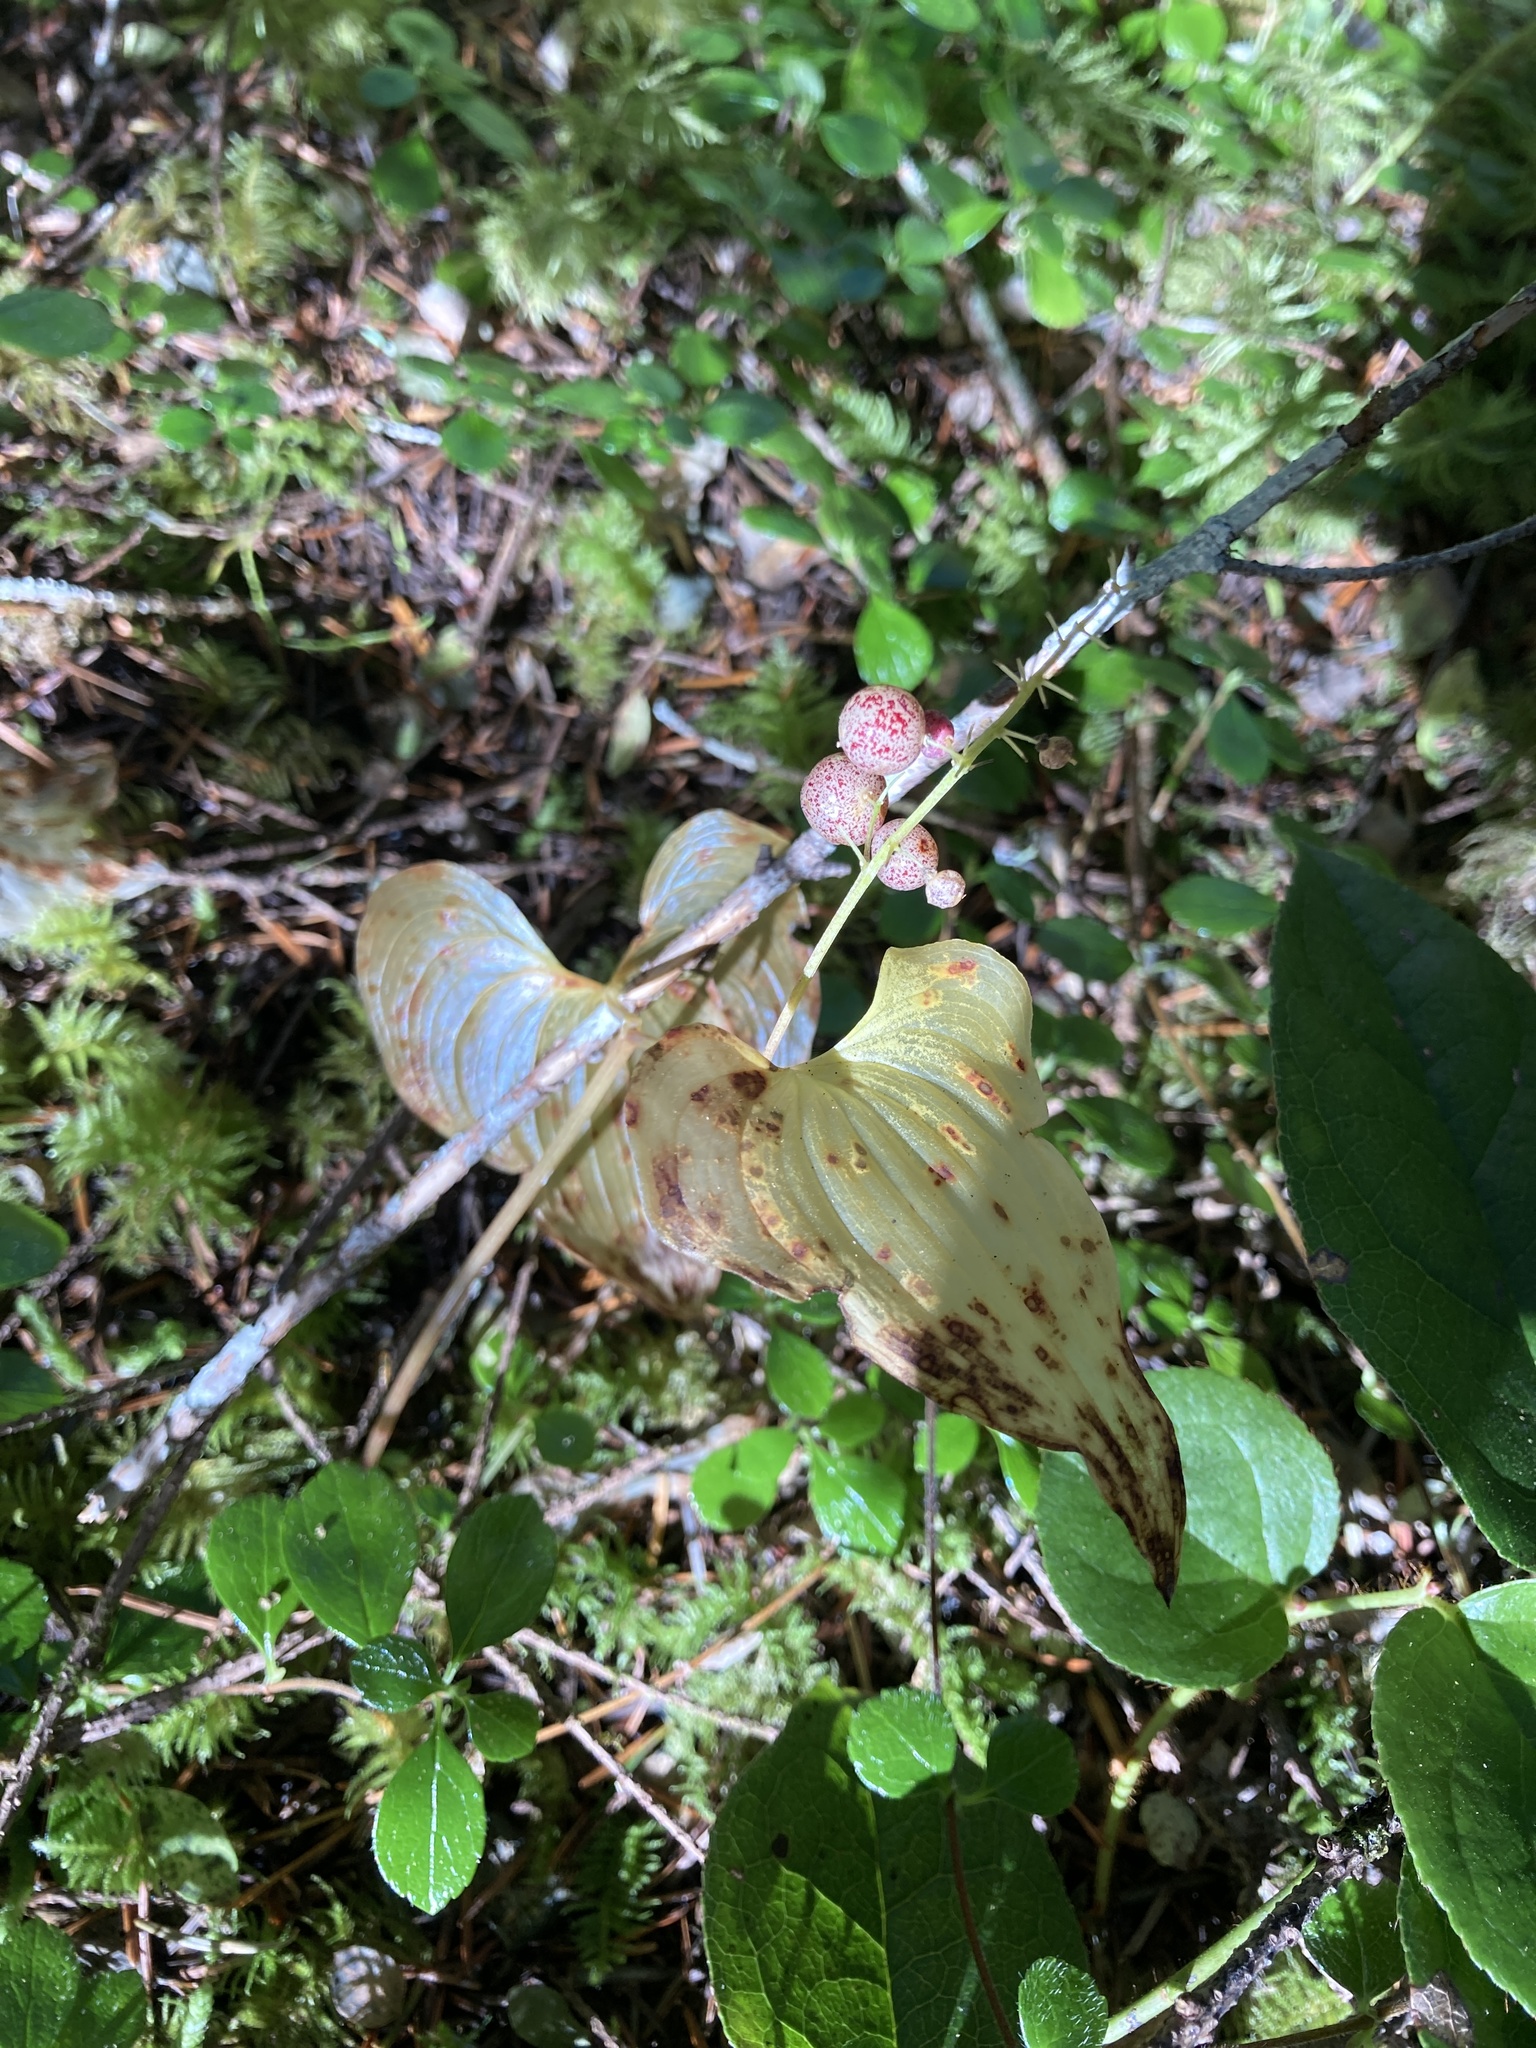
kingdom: Plantae
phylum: Tracheophyta
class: Liliopsida
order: Asparagales
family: Asparagaceae
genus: Maianthemum
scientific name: Maianthemum dilatatum
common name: False lily-of-the-valley
